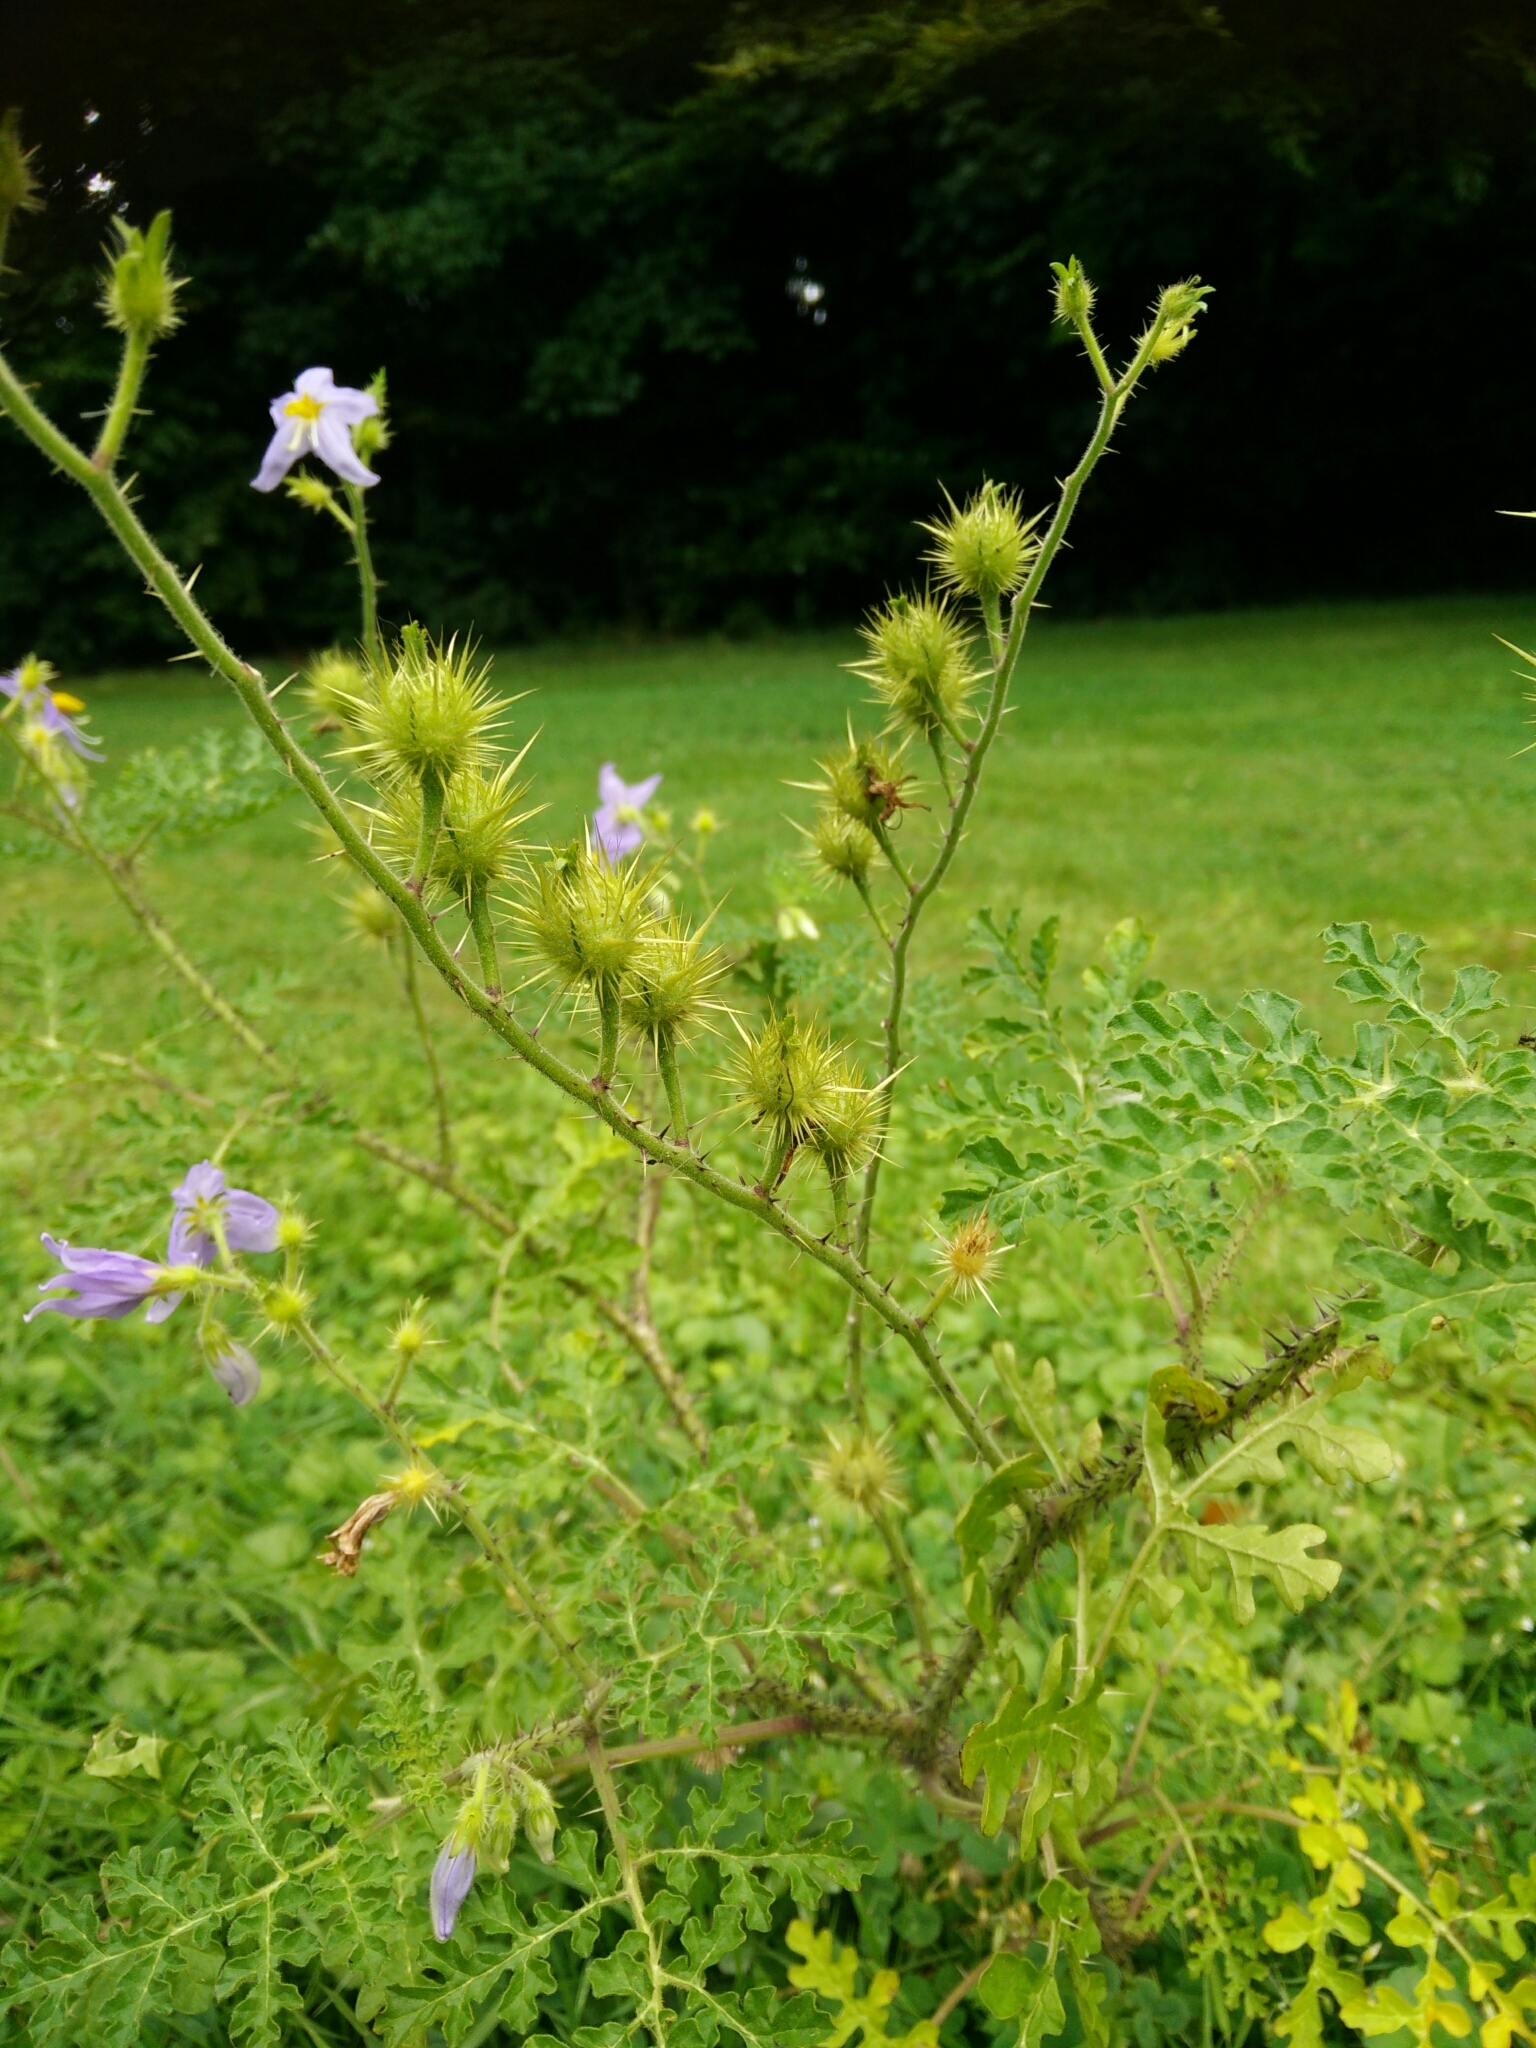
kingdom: Plantae
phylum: Tracheophyta
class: Magnoliopsida
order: Solanales
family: Solanaceae
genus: Solanum
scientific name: Solanum citrullifolium
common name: Melon-leaf nightshade
